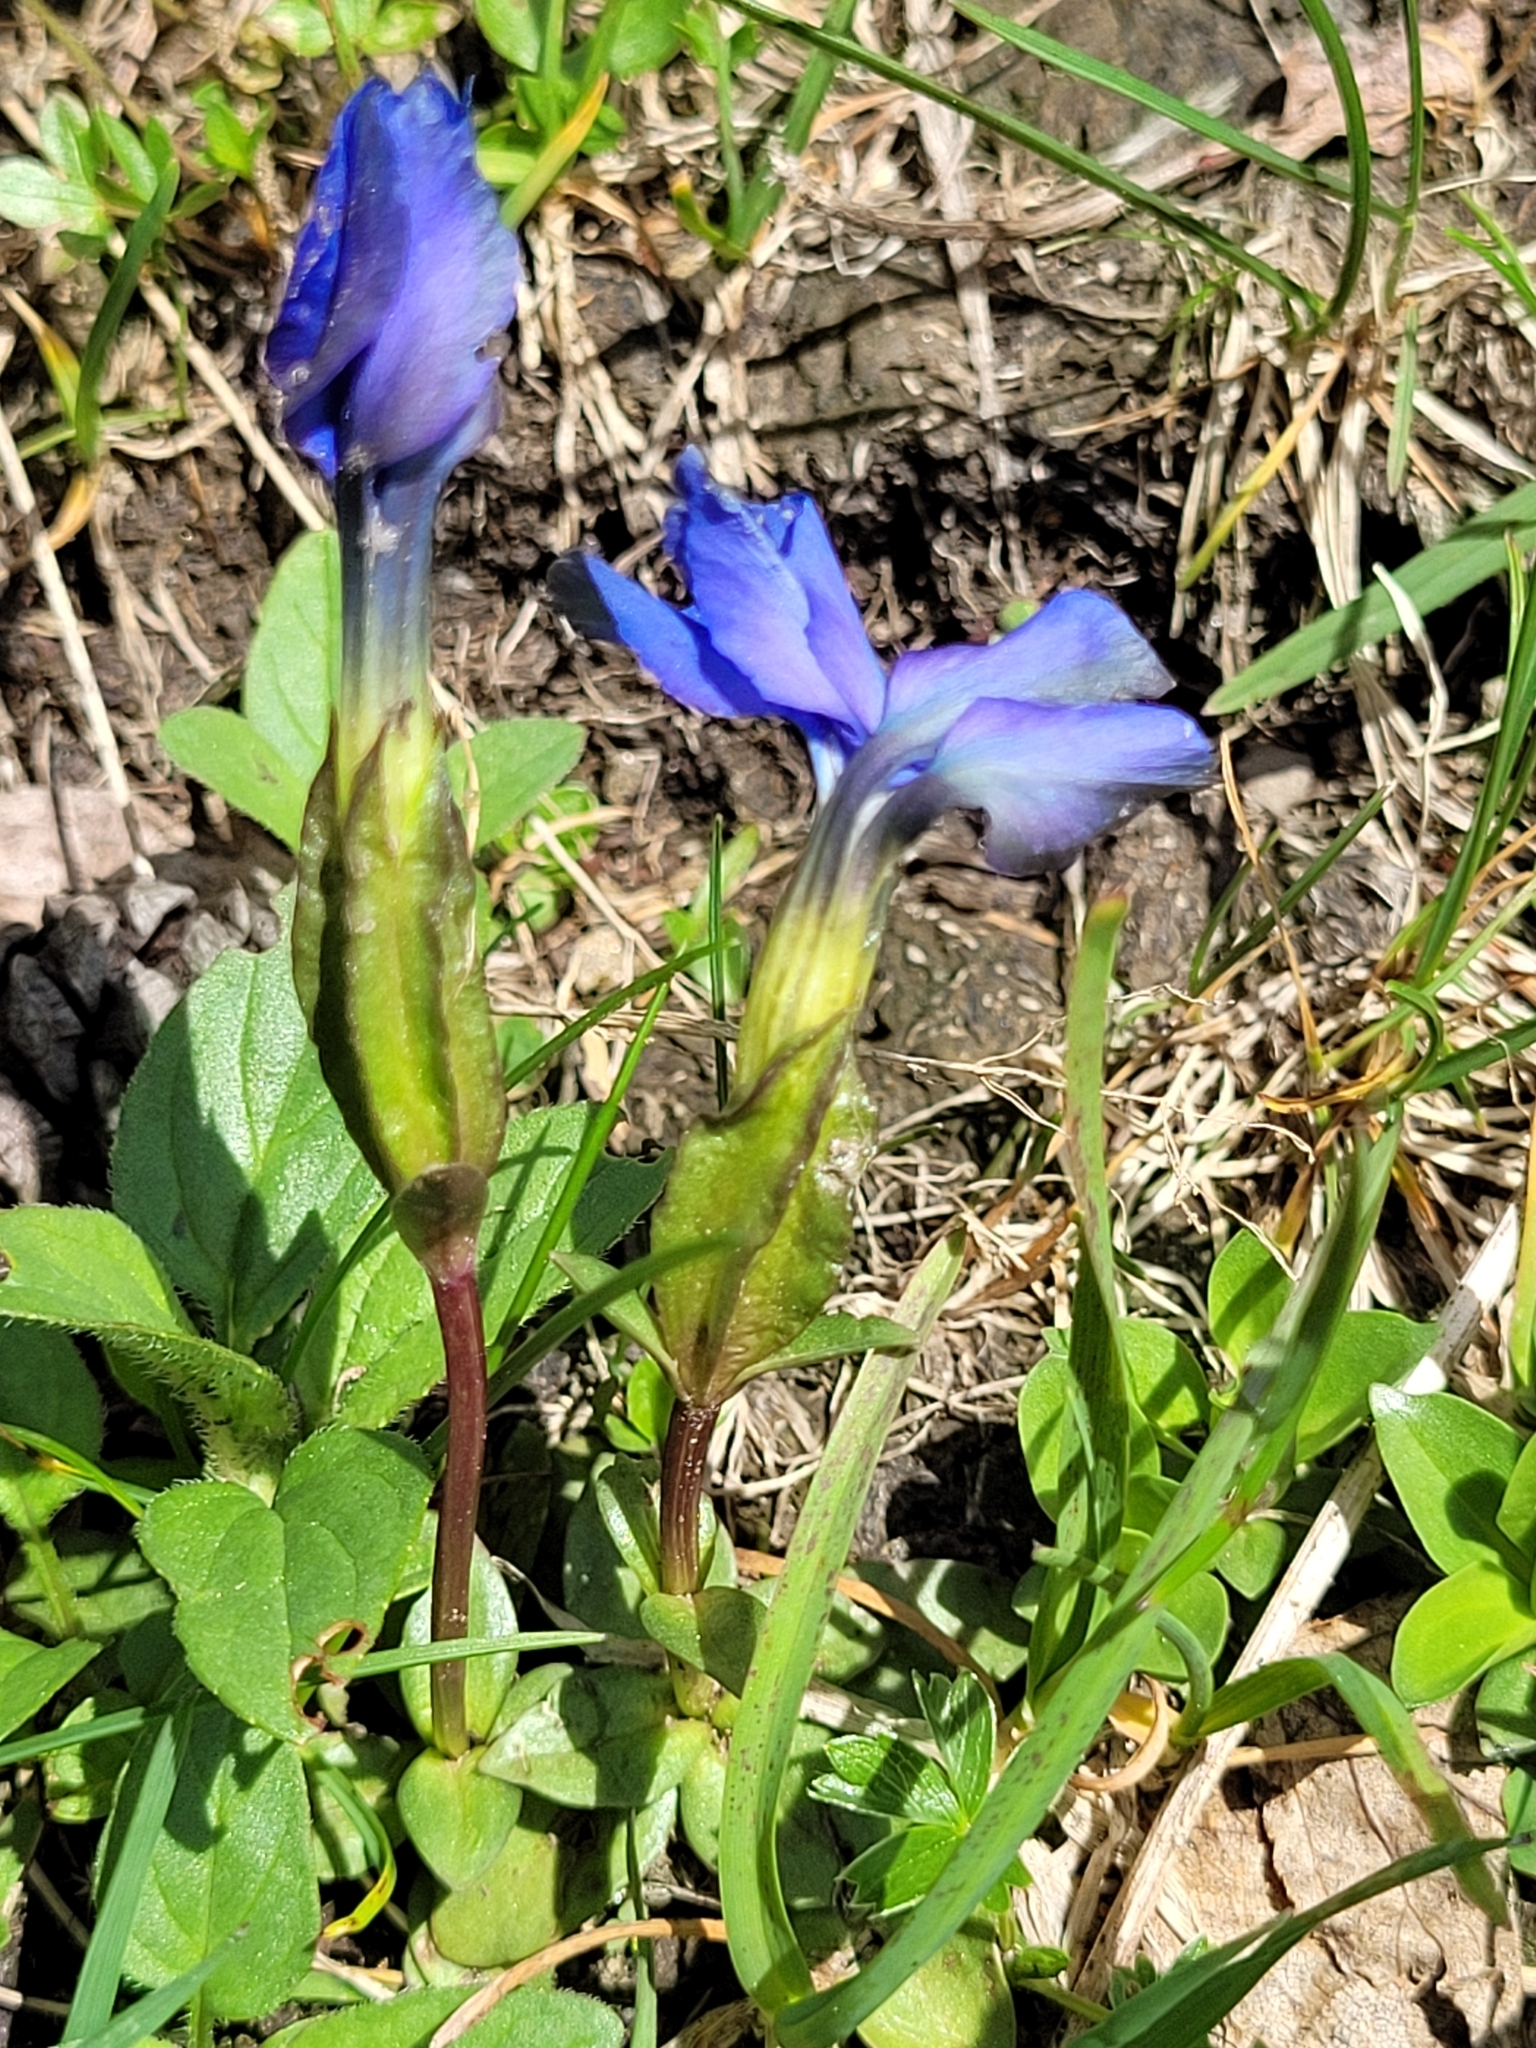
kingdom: Plantae
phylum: Tracheophyta
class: Magnoliopsida
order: Gentianales
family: Gentianaceae
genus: Gentiana
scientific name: Gentiana verna
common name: Spring gentian
